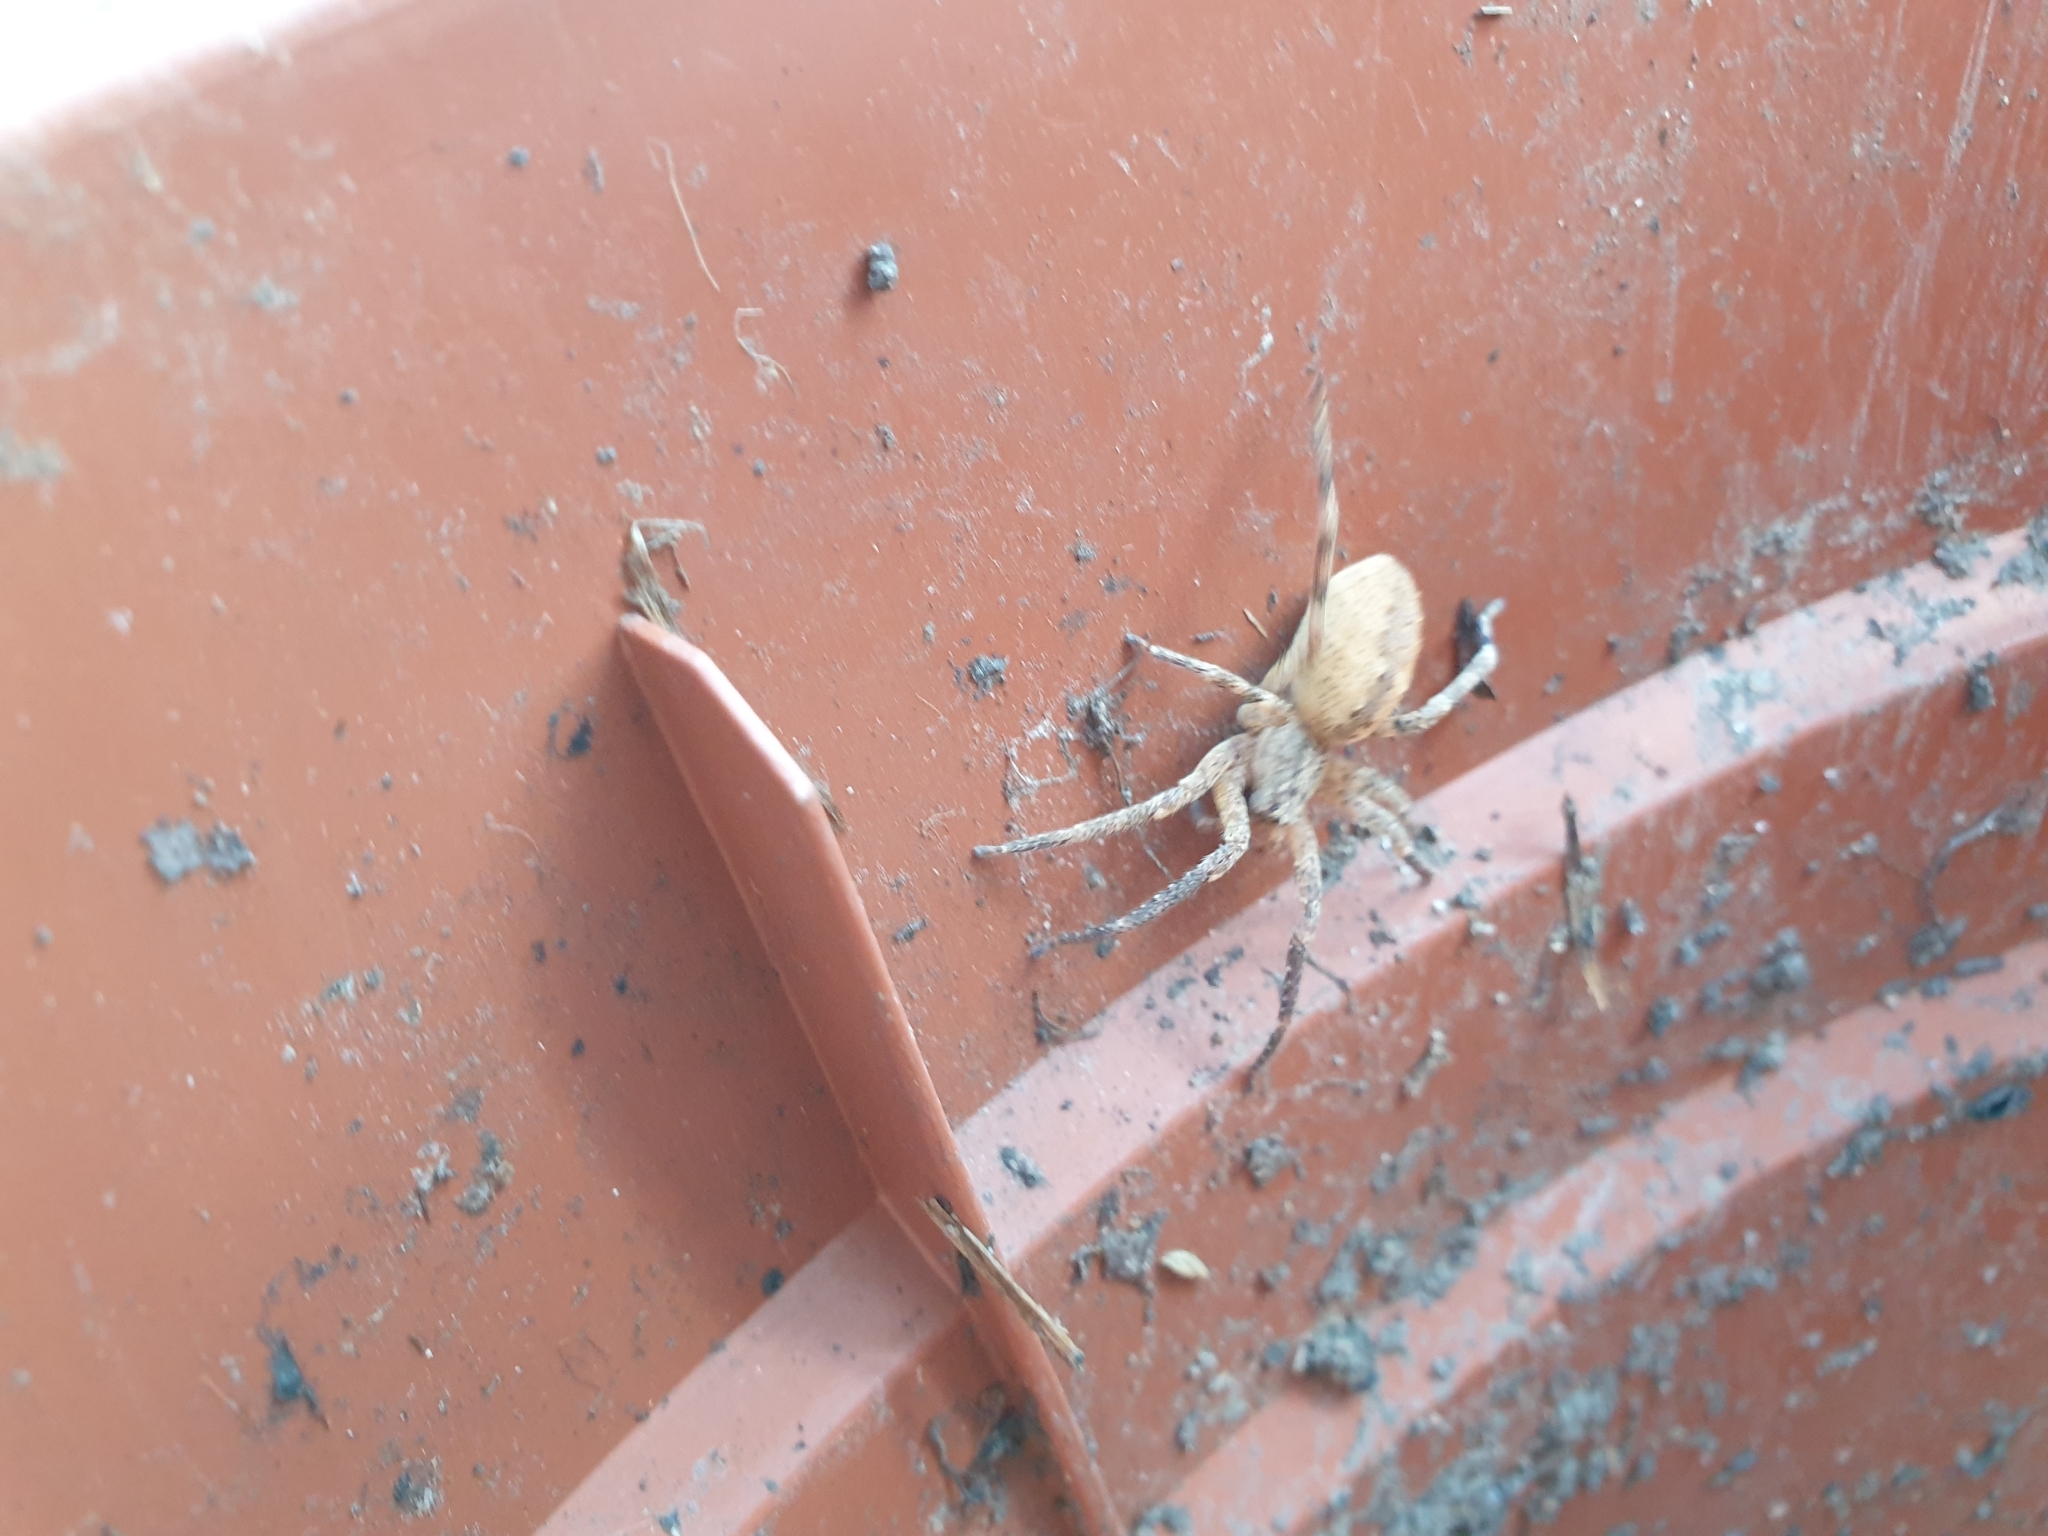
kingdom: Animalia
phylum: Arthropoda
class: Arachnida
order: Araneae
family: Zoropsidae
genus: Zoropsis
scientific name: Zoropsis spinimana
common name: Zoropsid spider
